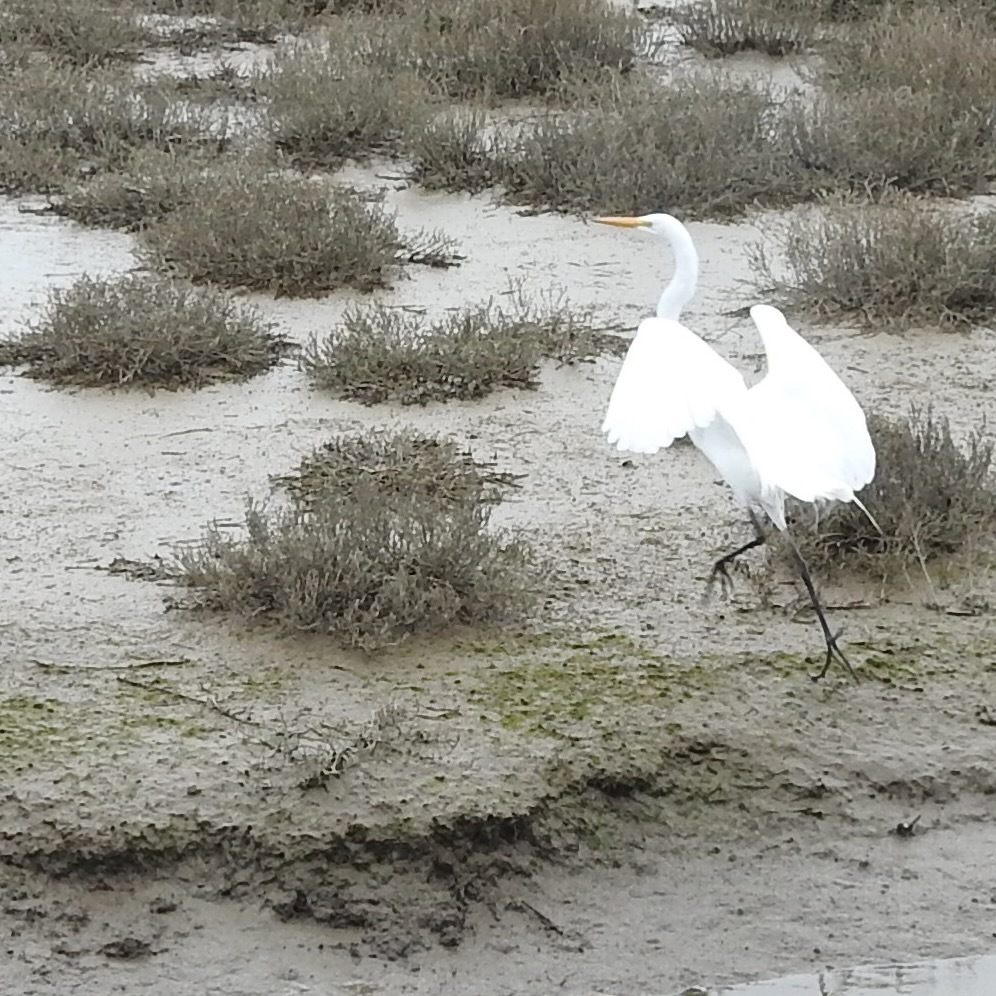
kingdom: Animalia
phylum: Chordata
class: Aves
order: Pelecaniformes
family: Ardeidae
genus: Ardea
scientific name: Ardea alba
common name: Great egret
